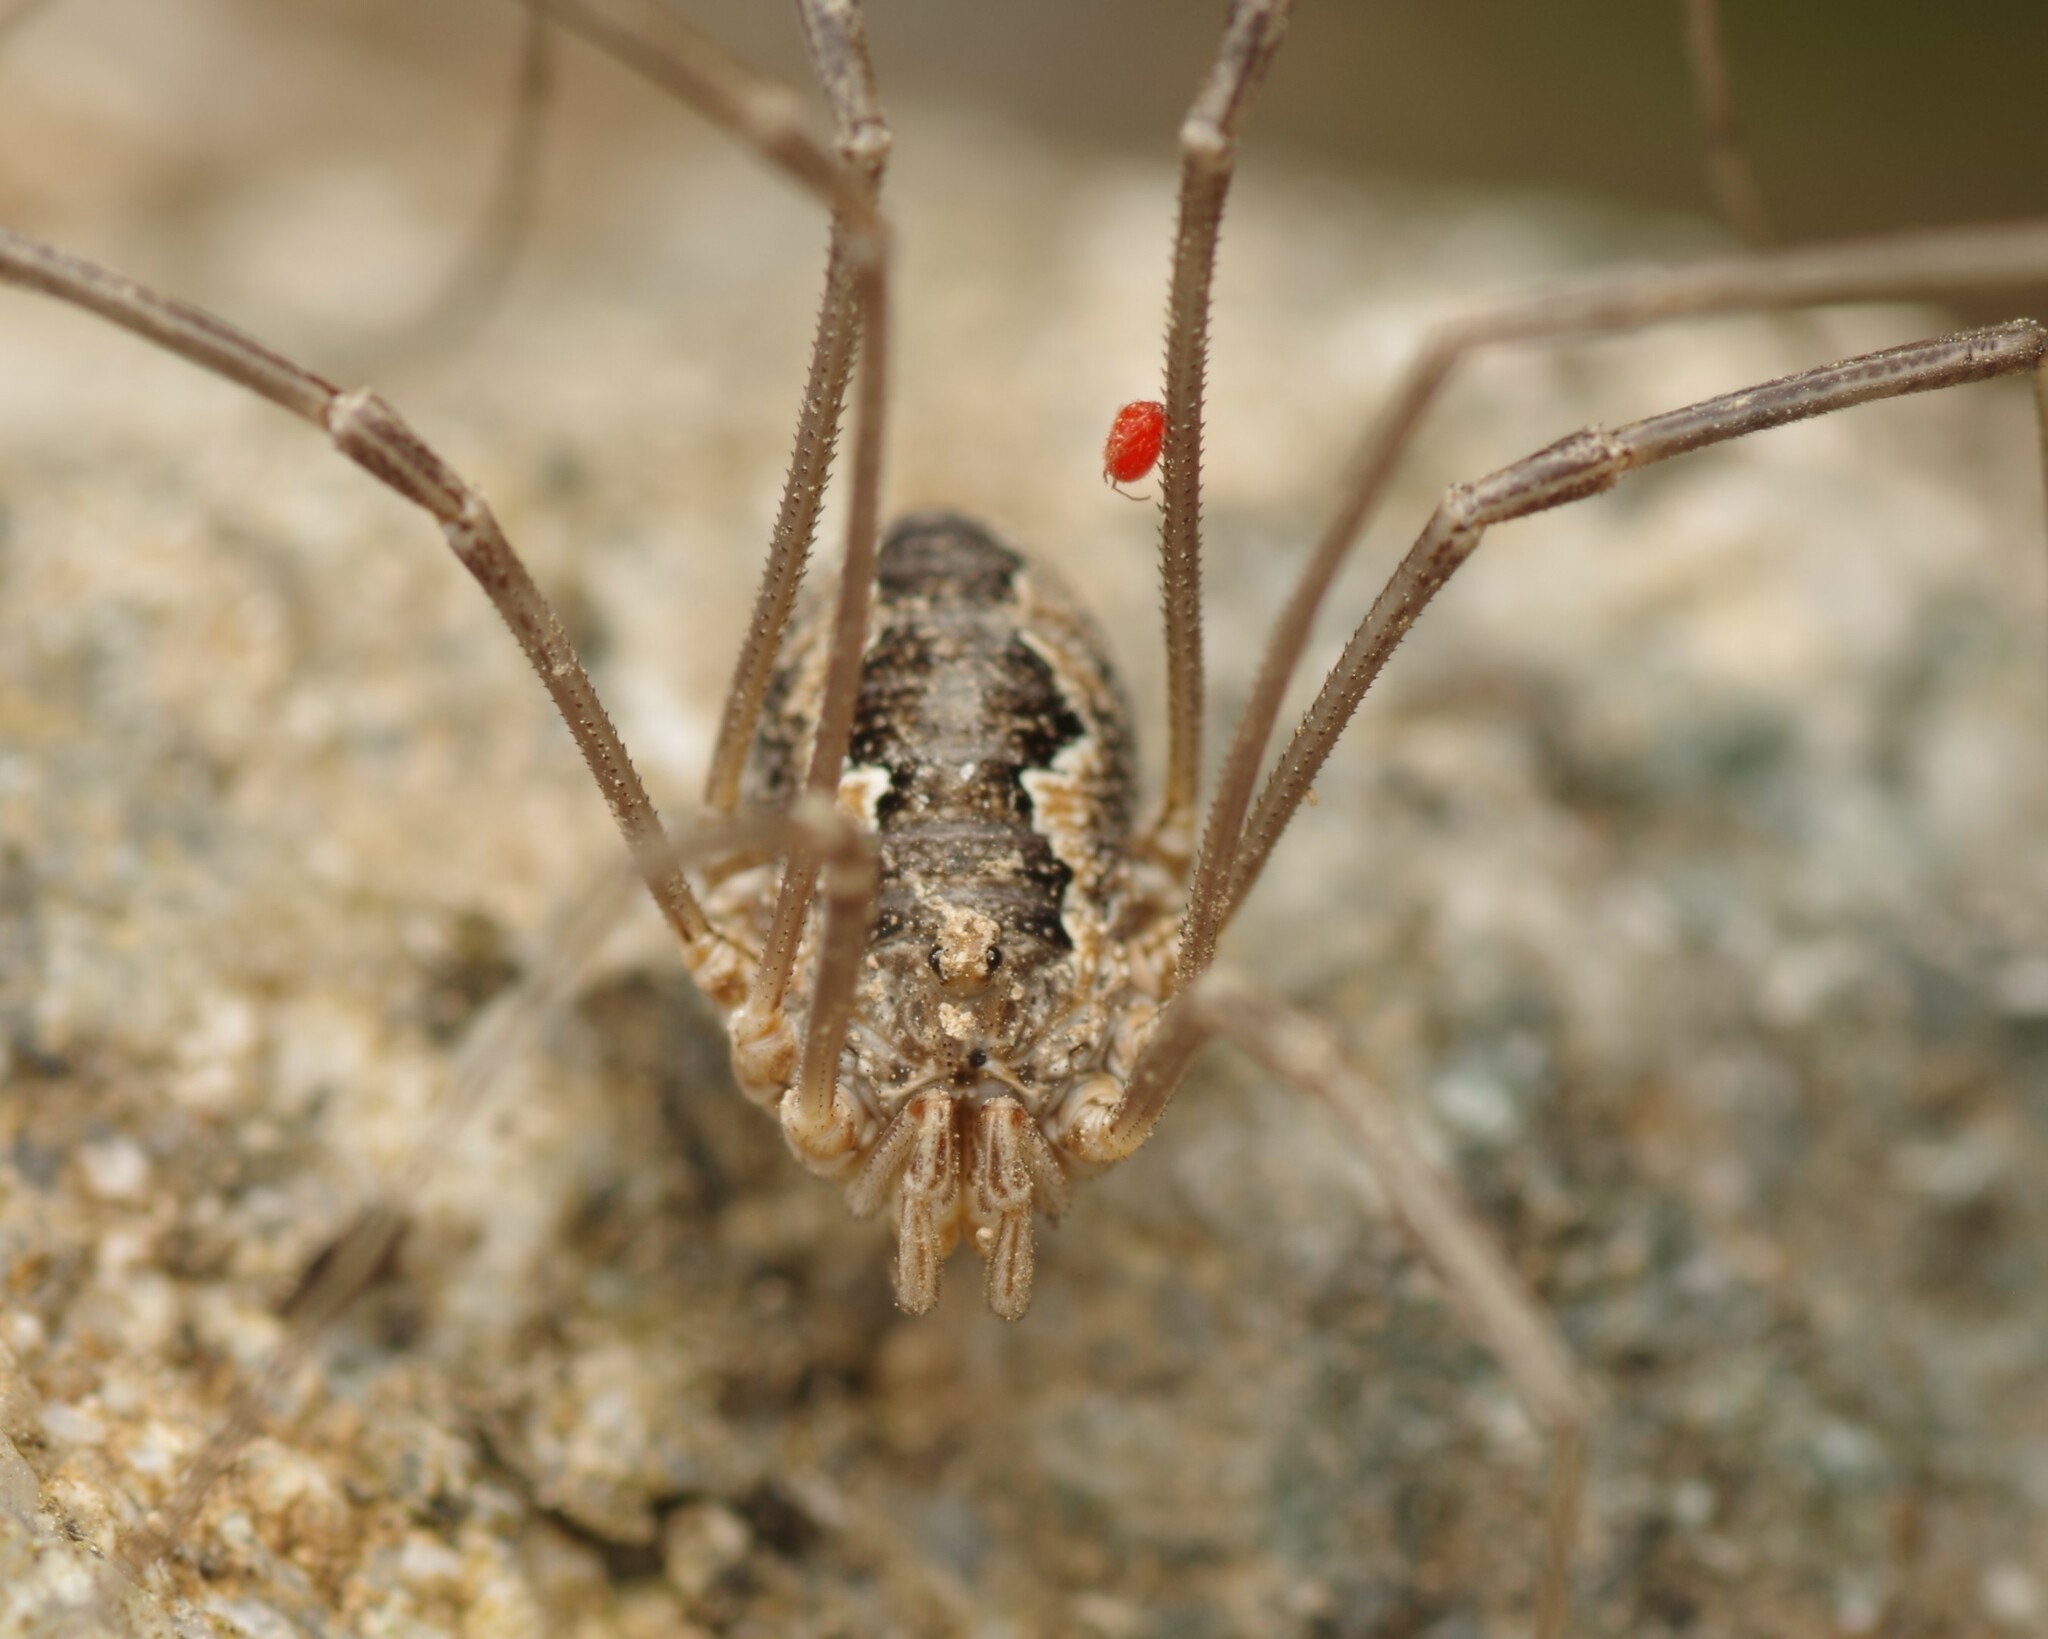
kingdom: Animalia
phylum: Arthropoda
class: Arachnida
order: Opiliones
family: Phalangiidae
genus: Phalangium
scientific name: Phalangium opilio
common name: Daddy longleg
